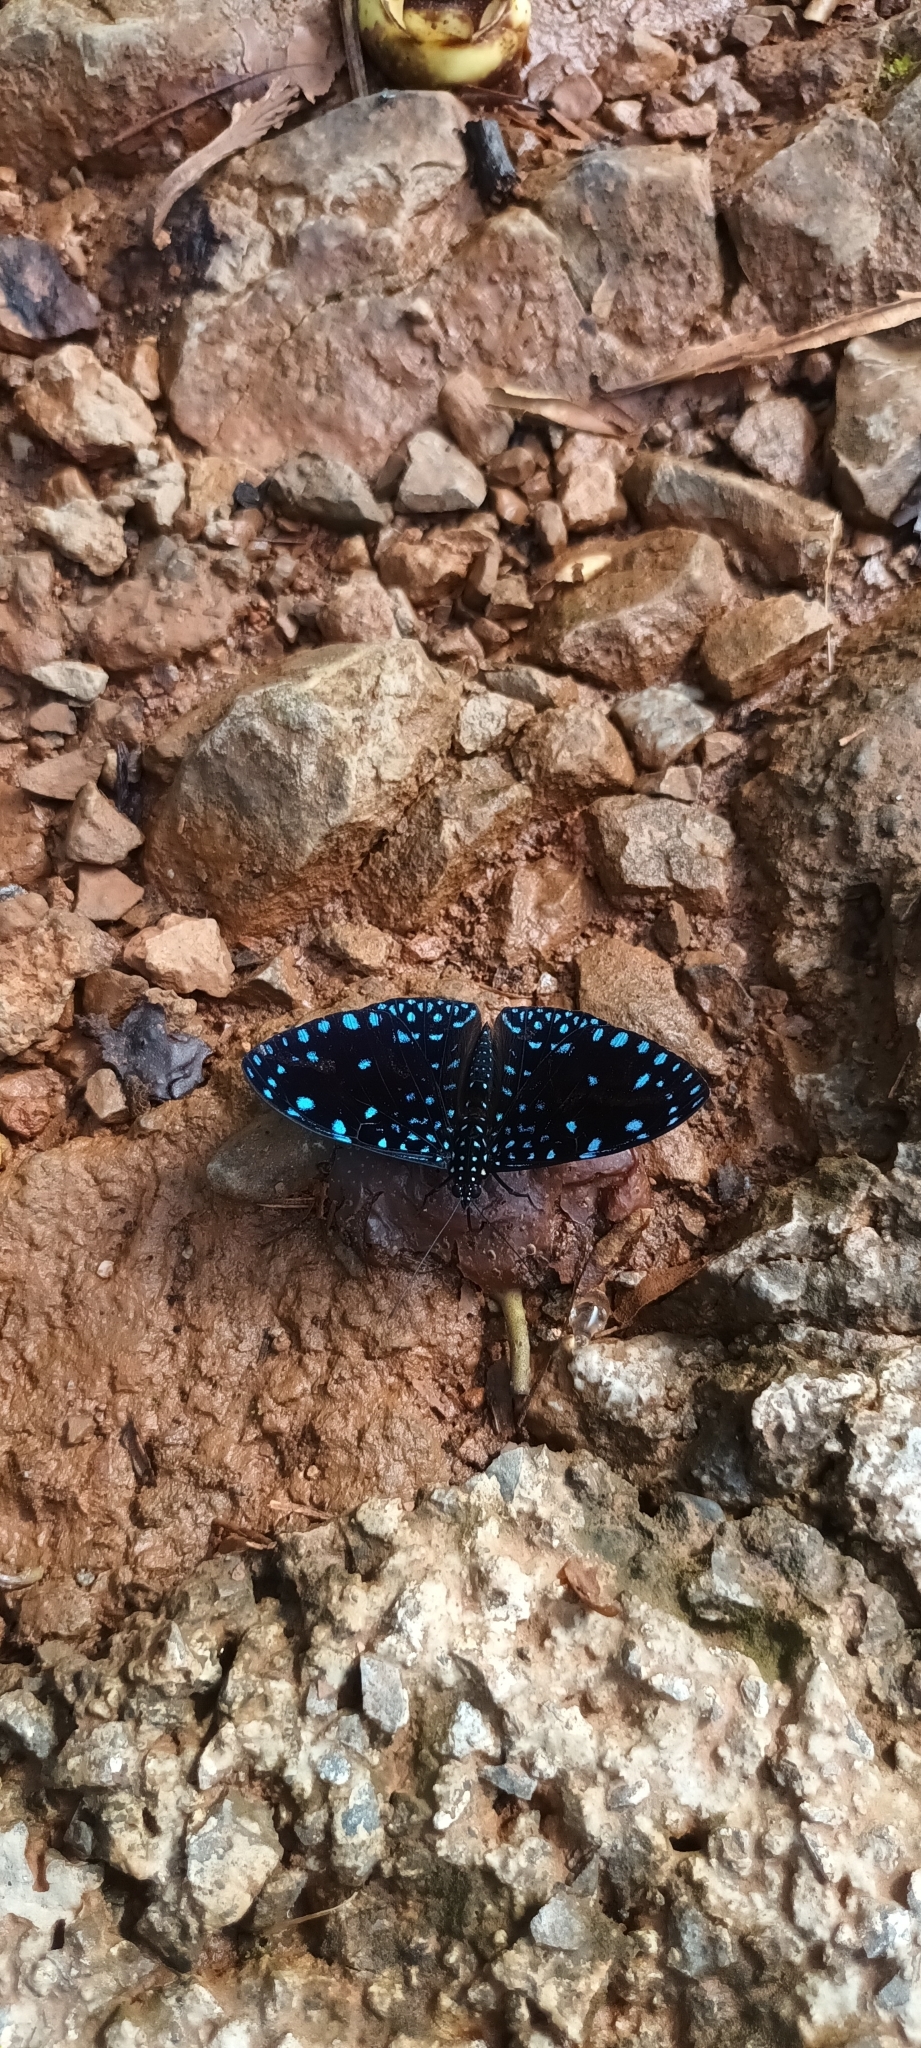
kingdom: Animalia
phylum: Arthropoda
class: Insecta
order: Lepidoptera
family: Nymphalidae
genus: Hamadryas
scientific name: Hamadryas laodamia
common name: Starry night cracker
